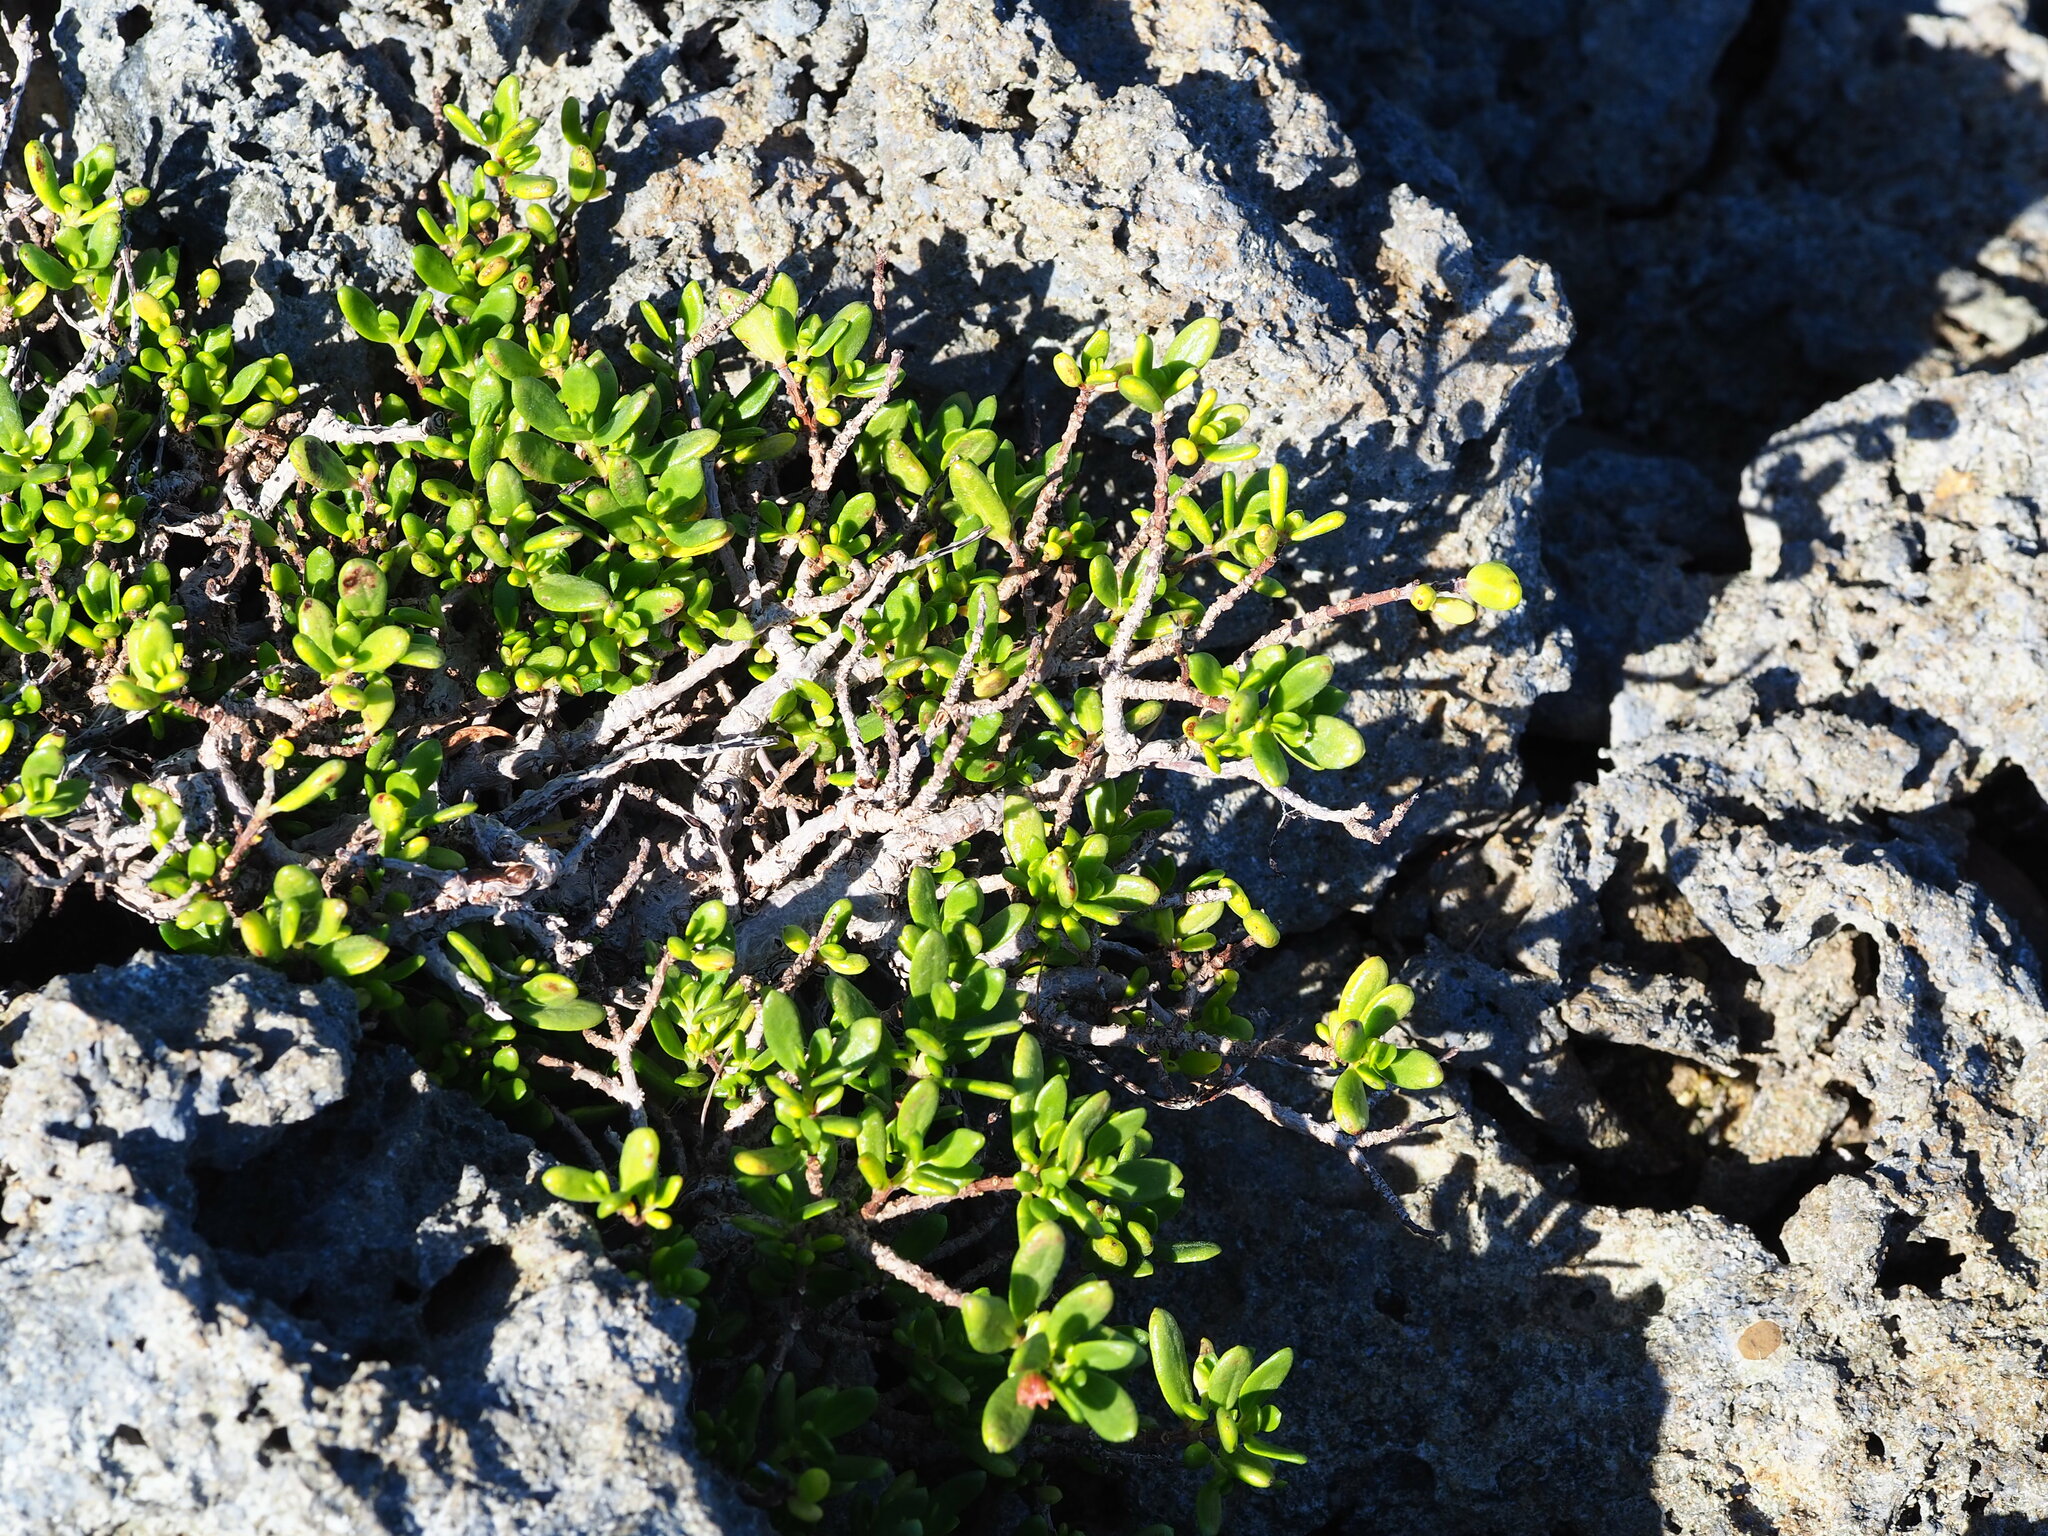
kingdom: Plantae
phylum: Tracheophyta
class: Magnoliopsida
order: Myrtales
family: Lythraceae
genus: Pemphis
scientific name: Pemphis acidula
